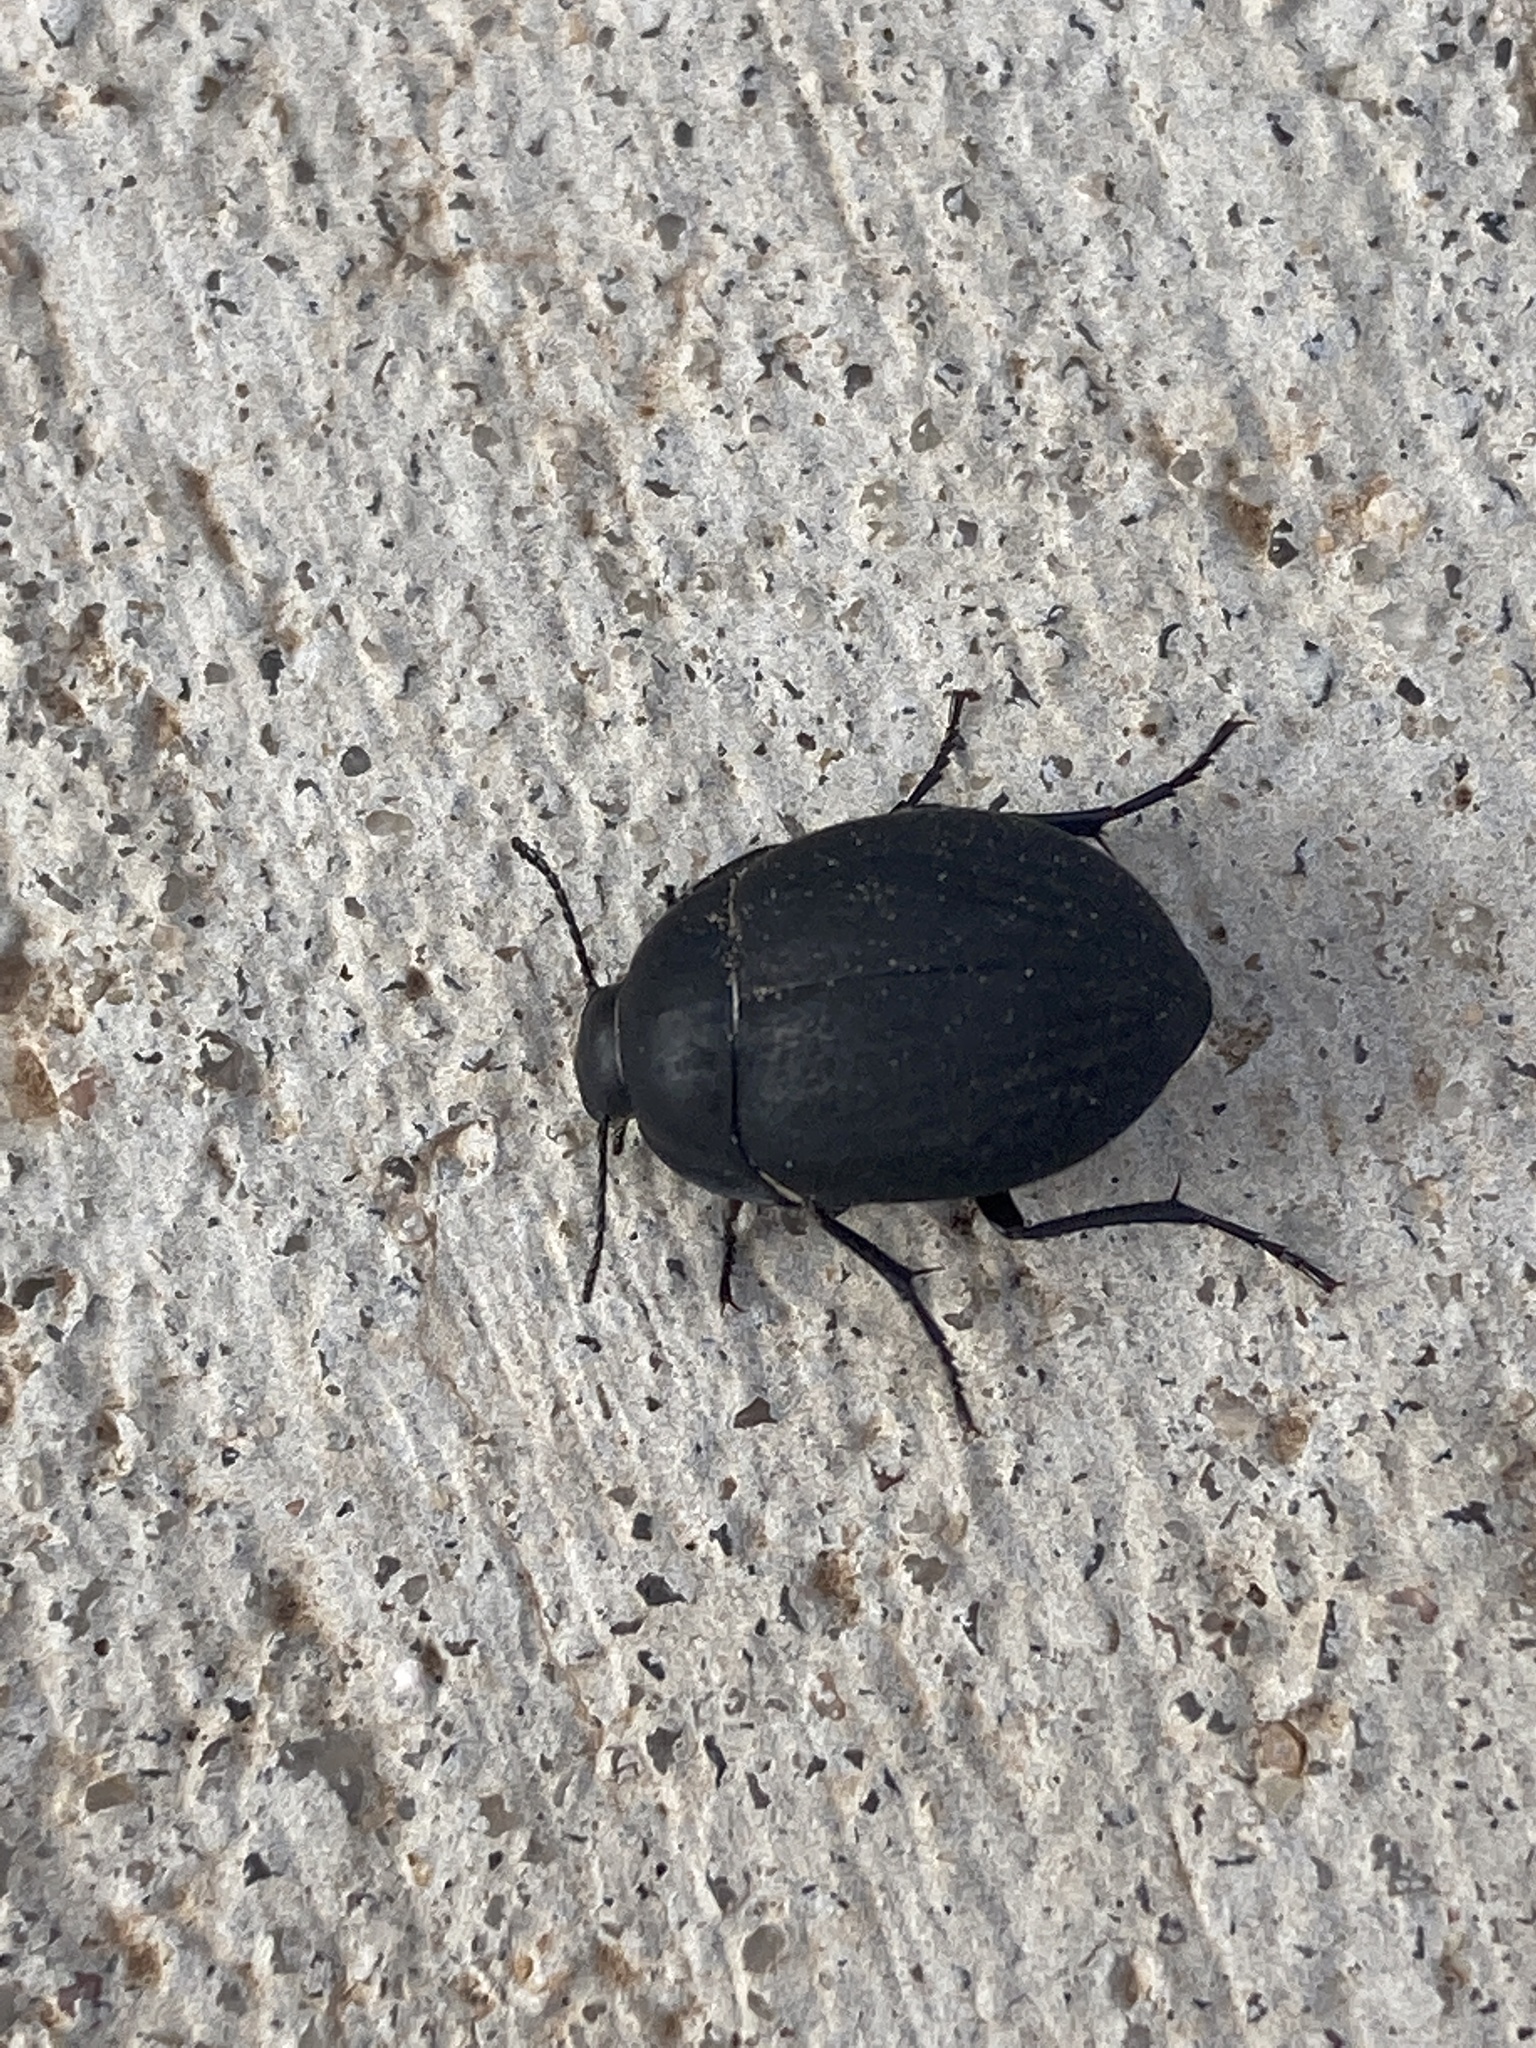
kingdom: Animalia
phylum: Arthropoda
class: Insecta
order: Coleoptera
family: Tenebrionidae
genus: Eusattus
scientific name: Eusattus reticulatus
